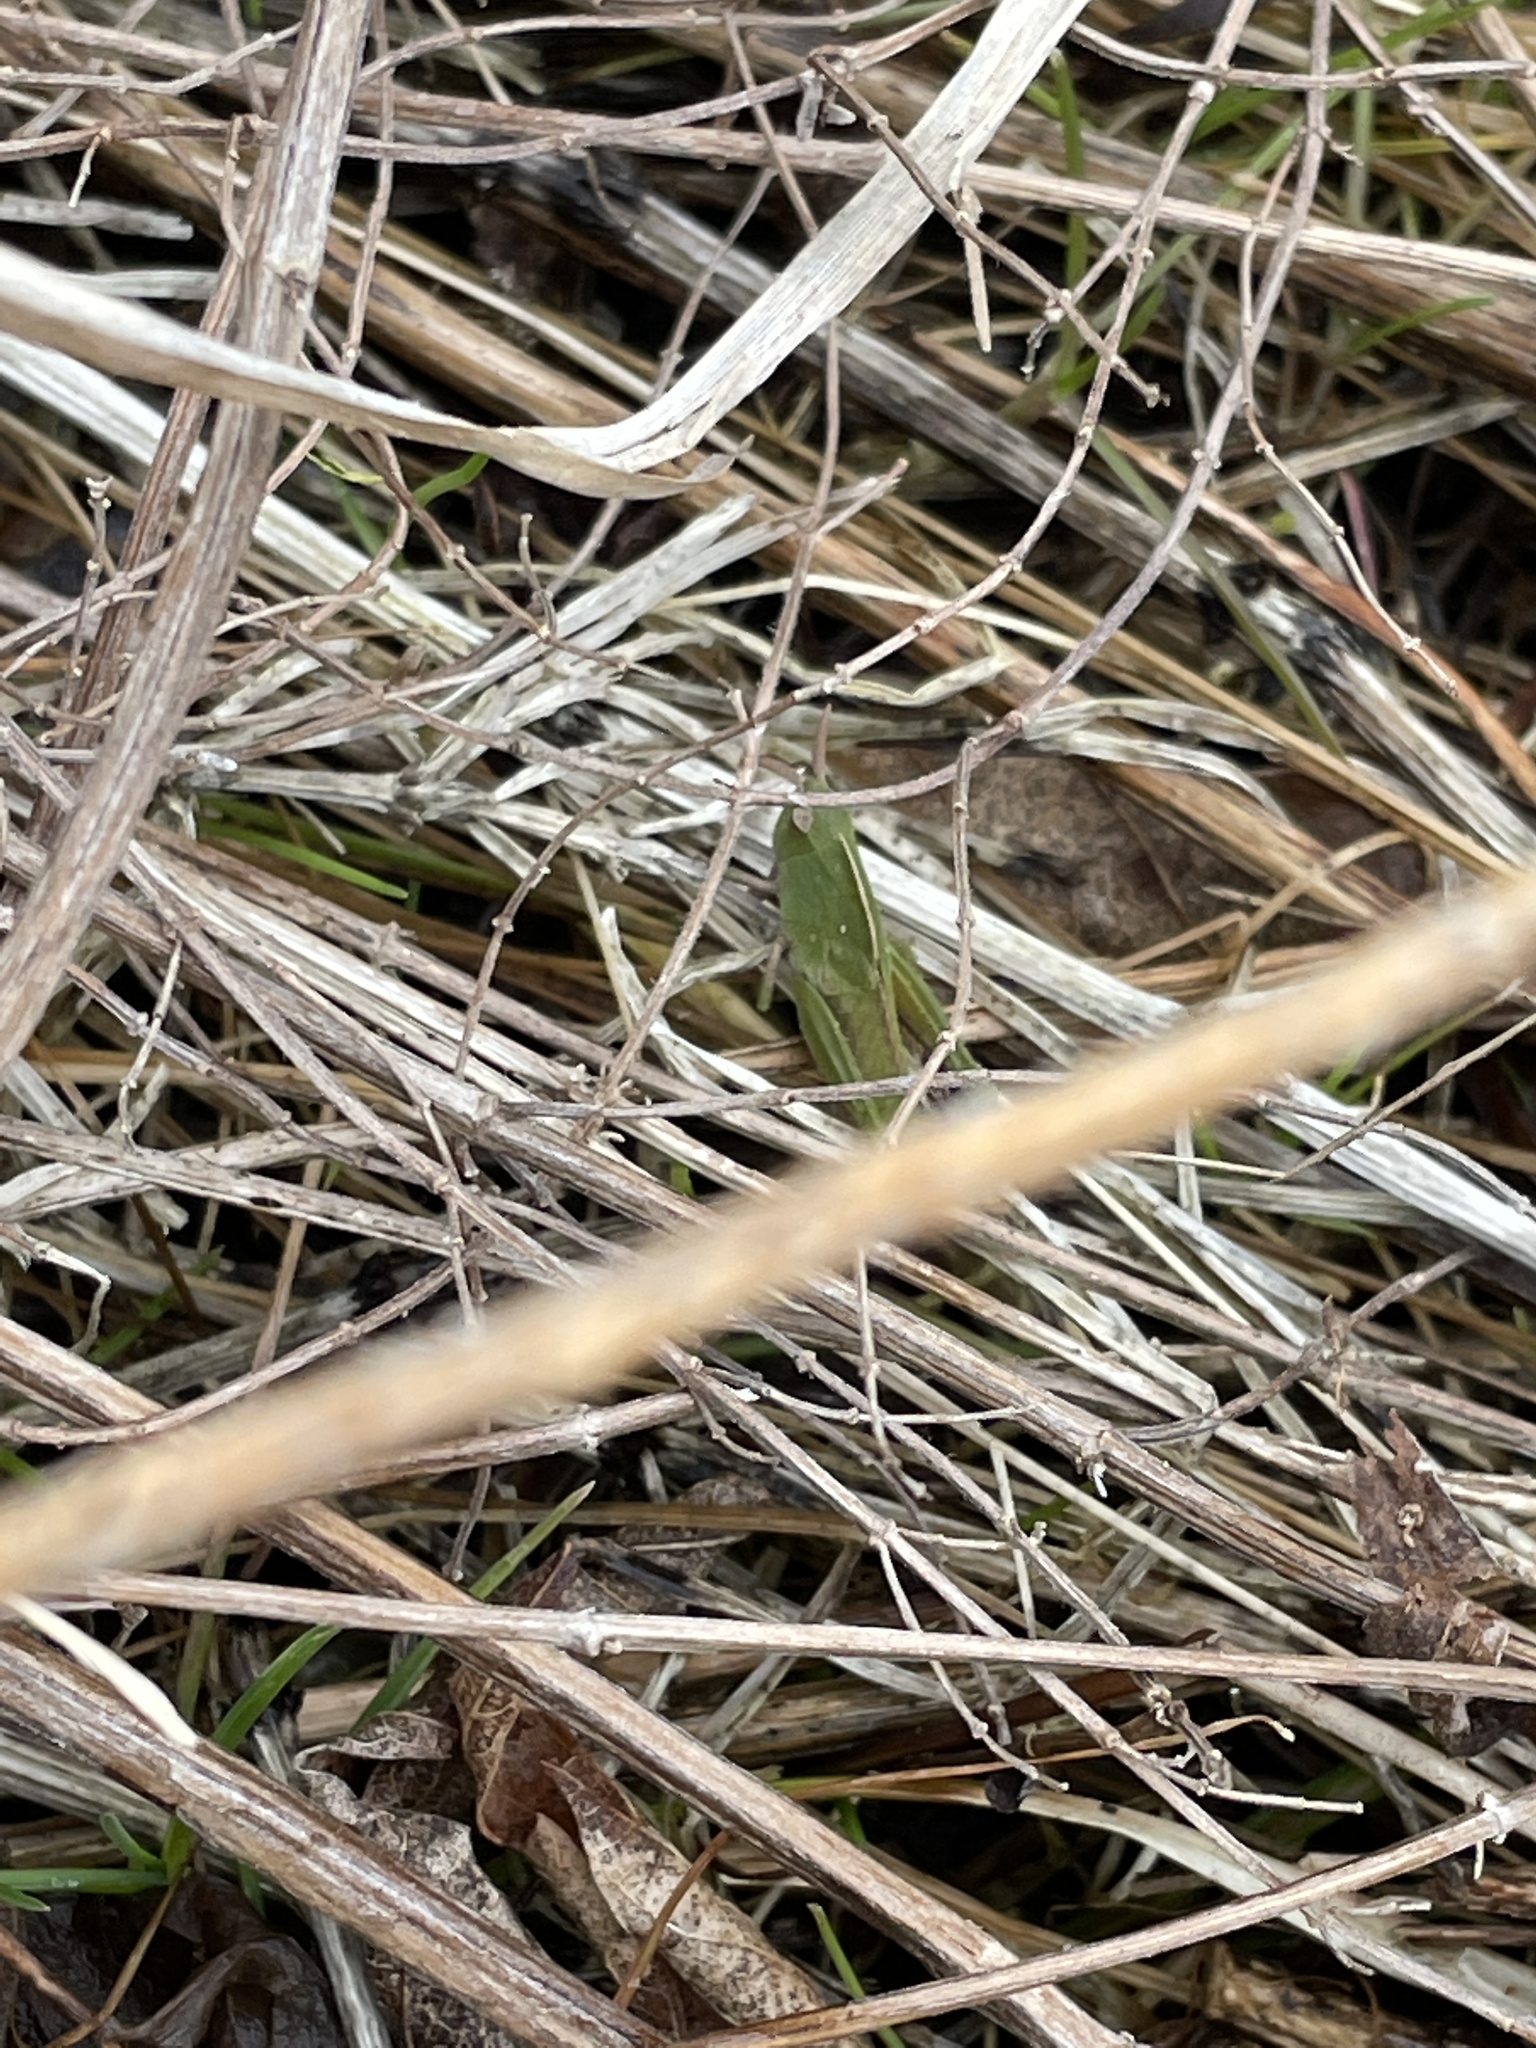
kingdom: Animalia
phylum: Arthropoda
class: Insecta
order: Orthoptera
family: Acrididae
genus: Chortophaga
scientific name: Chortophaga viridifasciata
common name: Green-striped grasshopper
